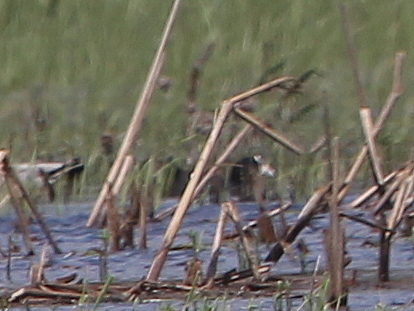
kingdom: Animalia
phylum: Chordata
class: Aves
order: Gruiformes
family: Rallidae
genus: Fulica
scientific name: Fulica atra
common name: Eurasian coot
